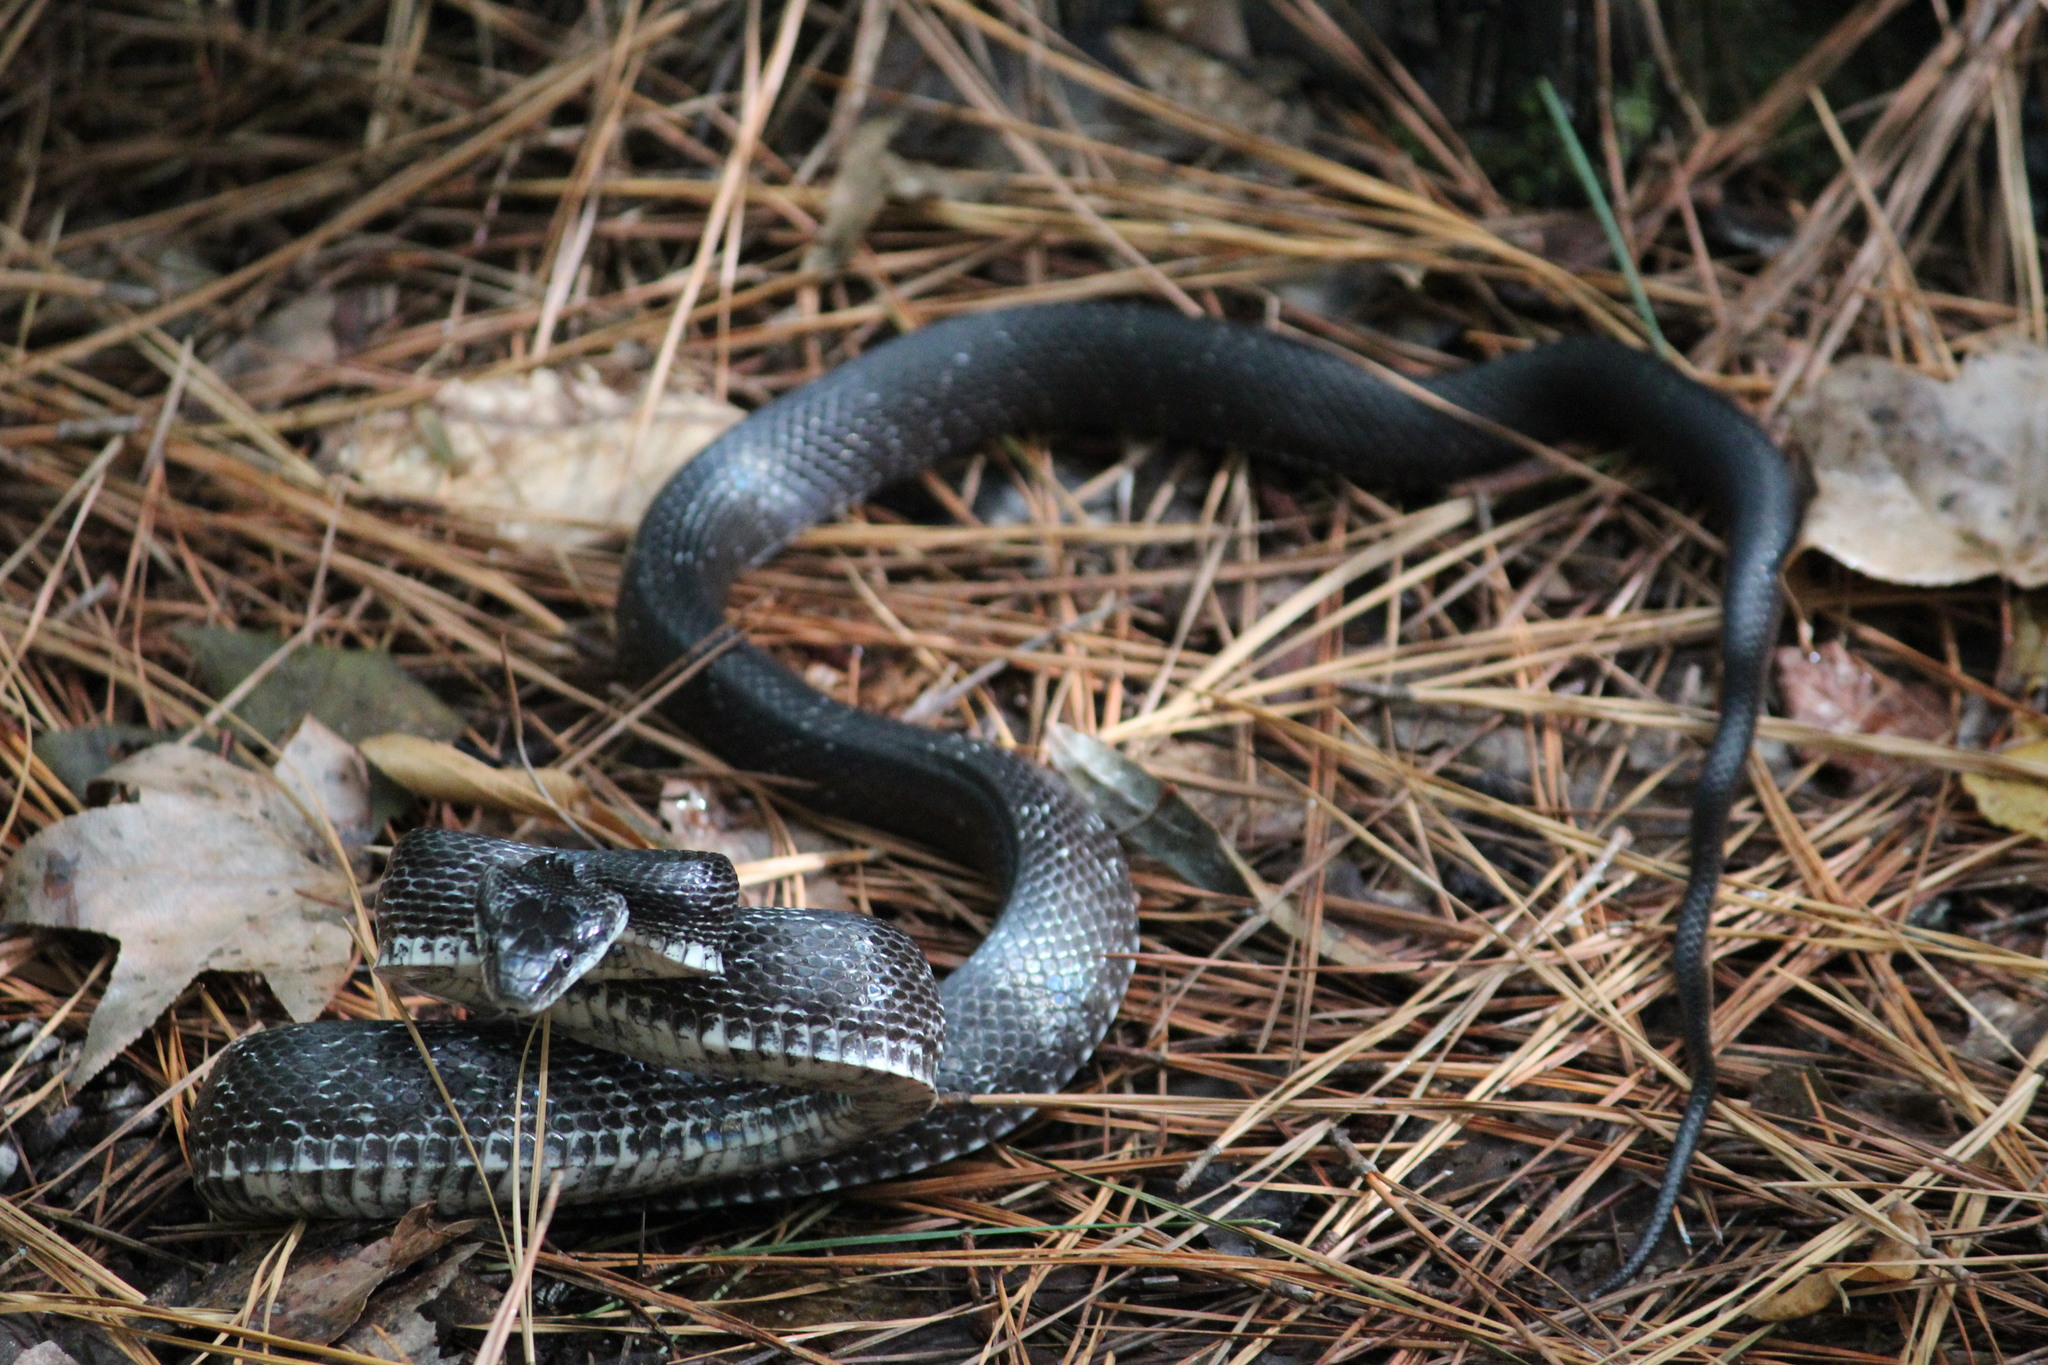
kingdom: Animalia
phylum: Chordata
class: Squamata
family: Colubridae
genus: Pantherophis
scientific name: Pantherophis alleghaniensis
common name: Eastern rat snake
